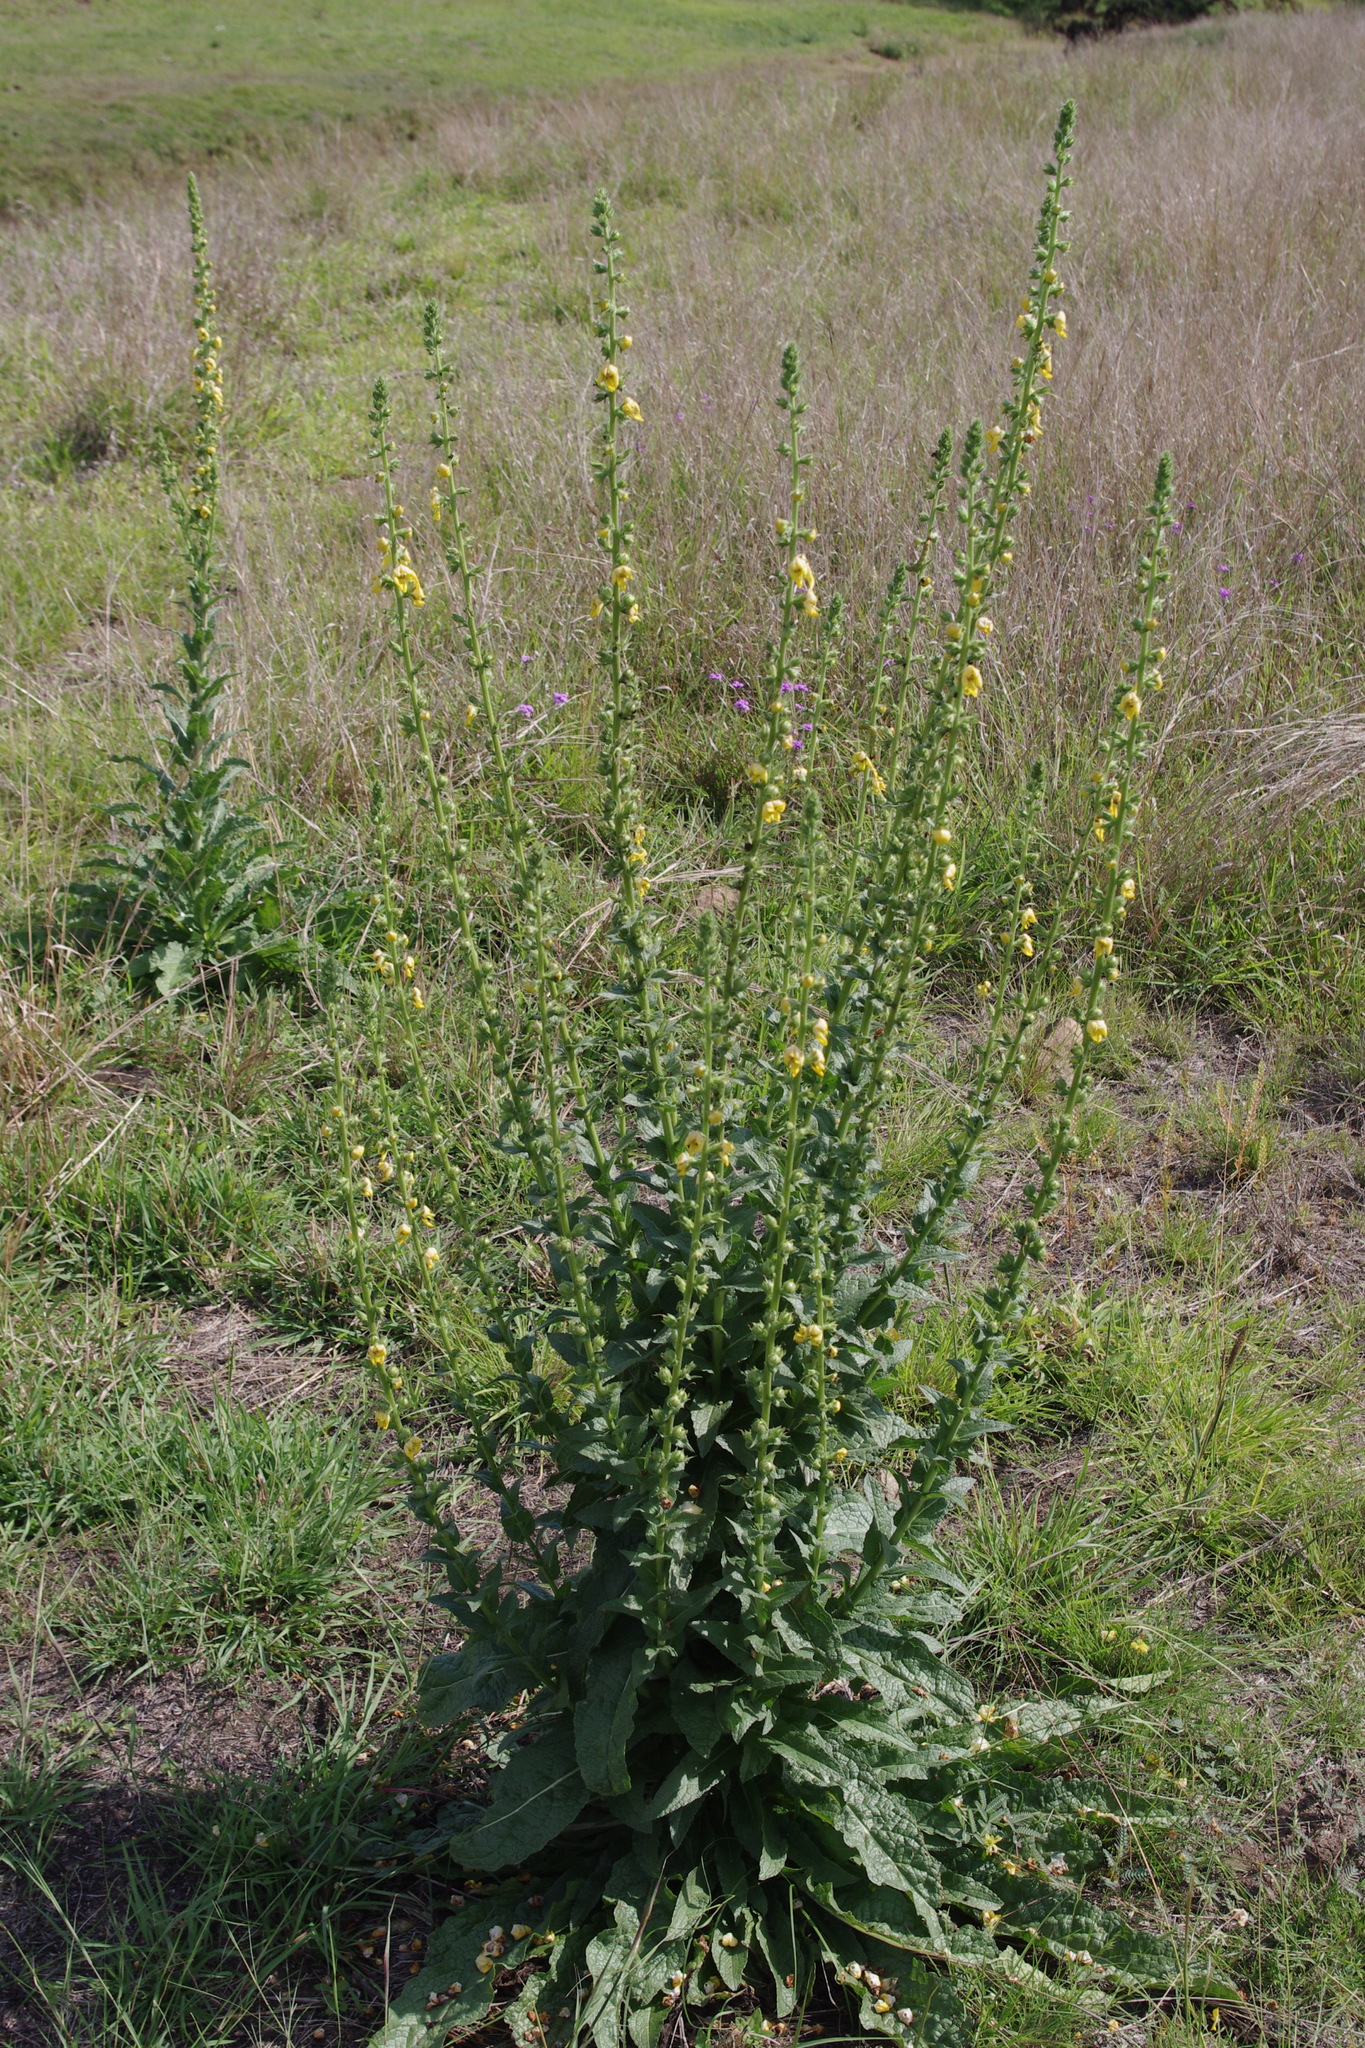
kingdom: Plantae
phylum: Tracheophyta
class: Magnoliopsida
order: Lamiales
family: Scrophulariaceae
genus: Verbascum
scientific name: Verbascum virgatum
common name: Twiggy mullein
